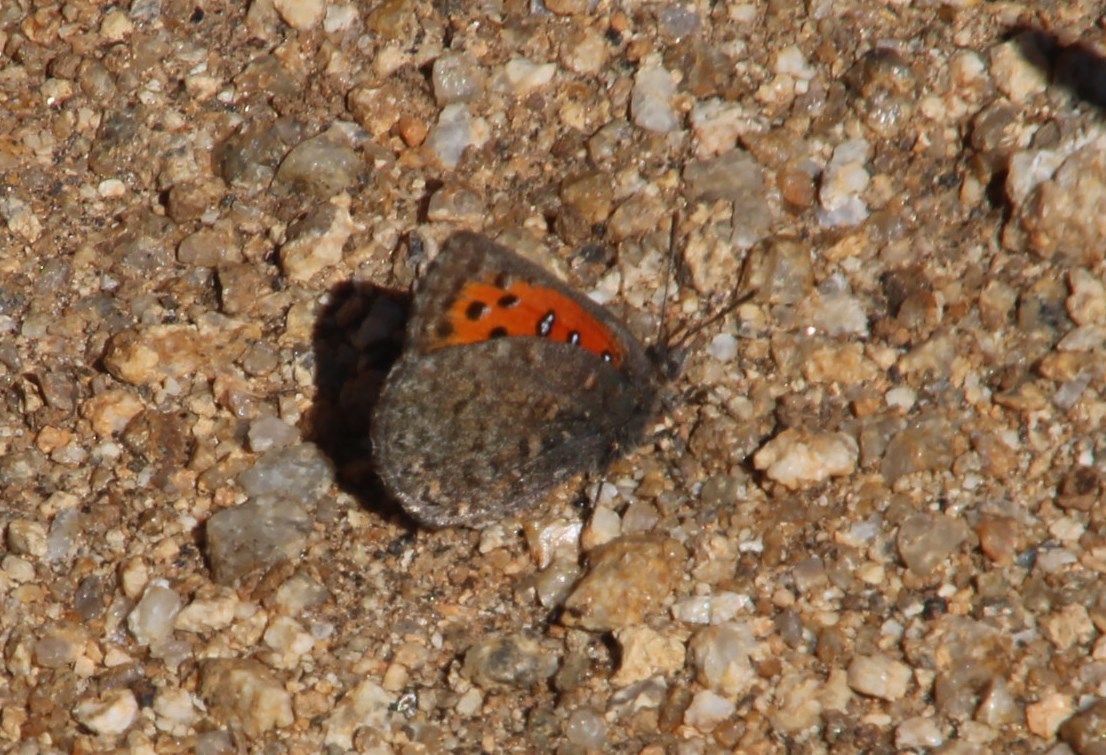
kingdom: Animalia
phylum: Arthropoda
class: Insecta
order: Lepidoptera
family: Lycaenidae
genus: Aloeides
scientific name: Aloeides bamptoni
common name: Bampton's copper
